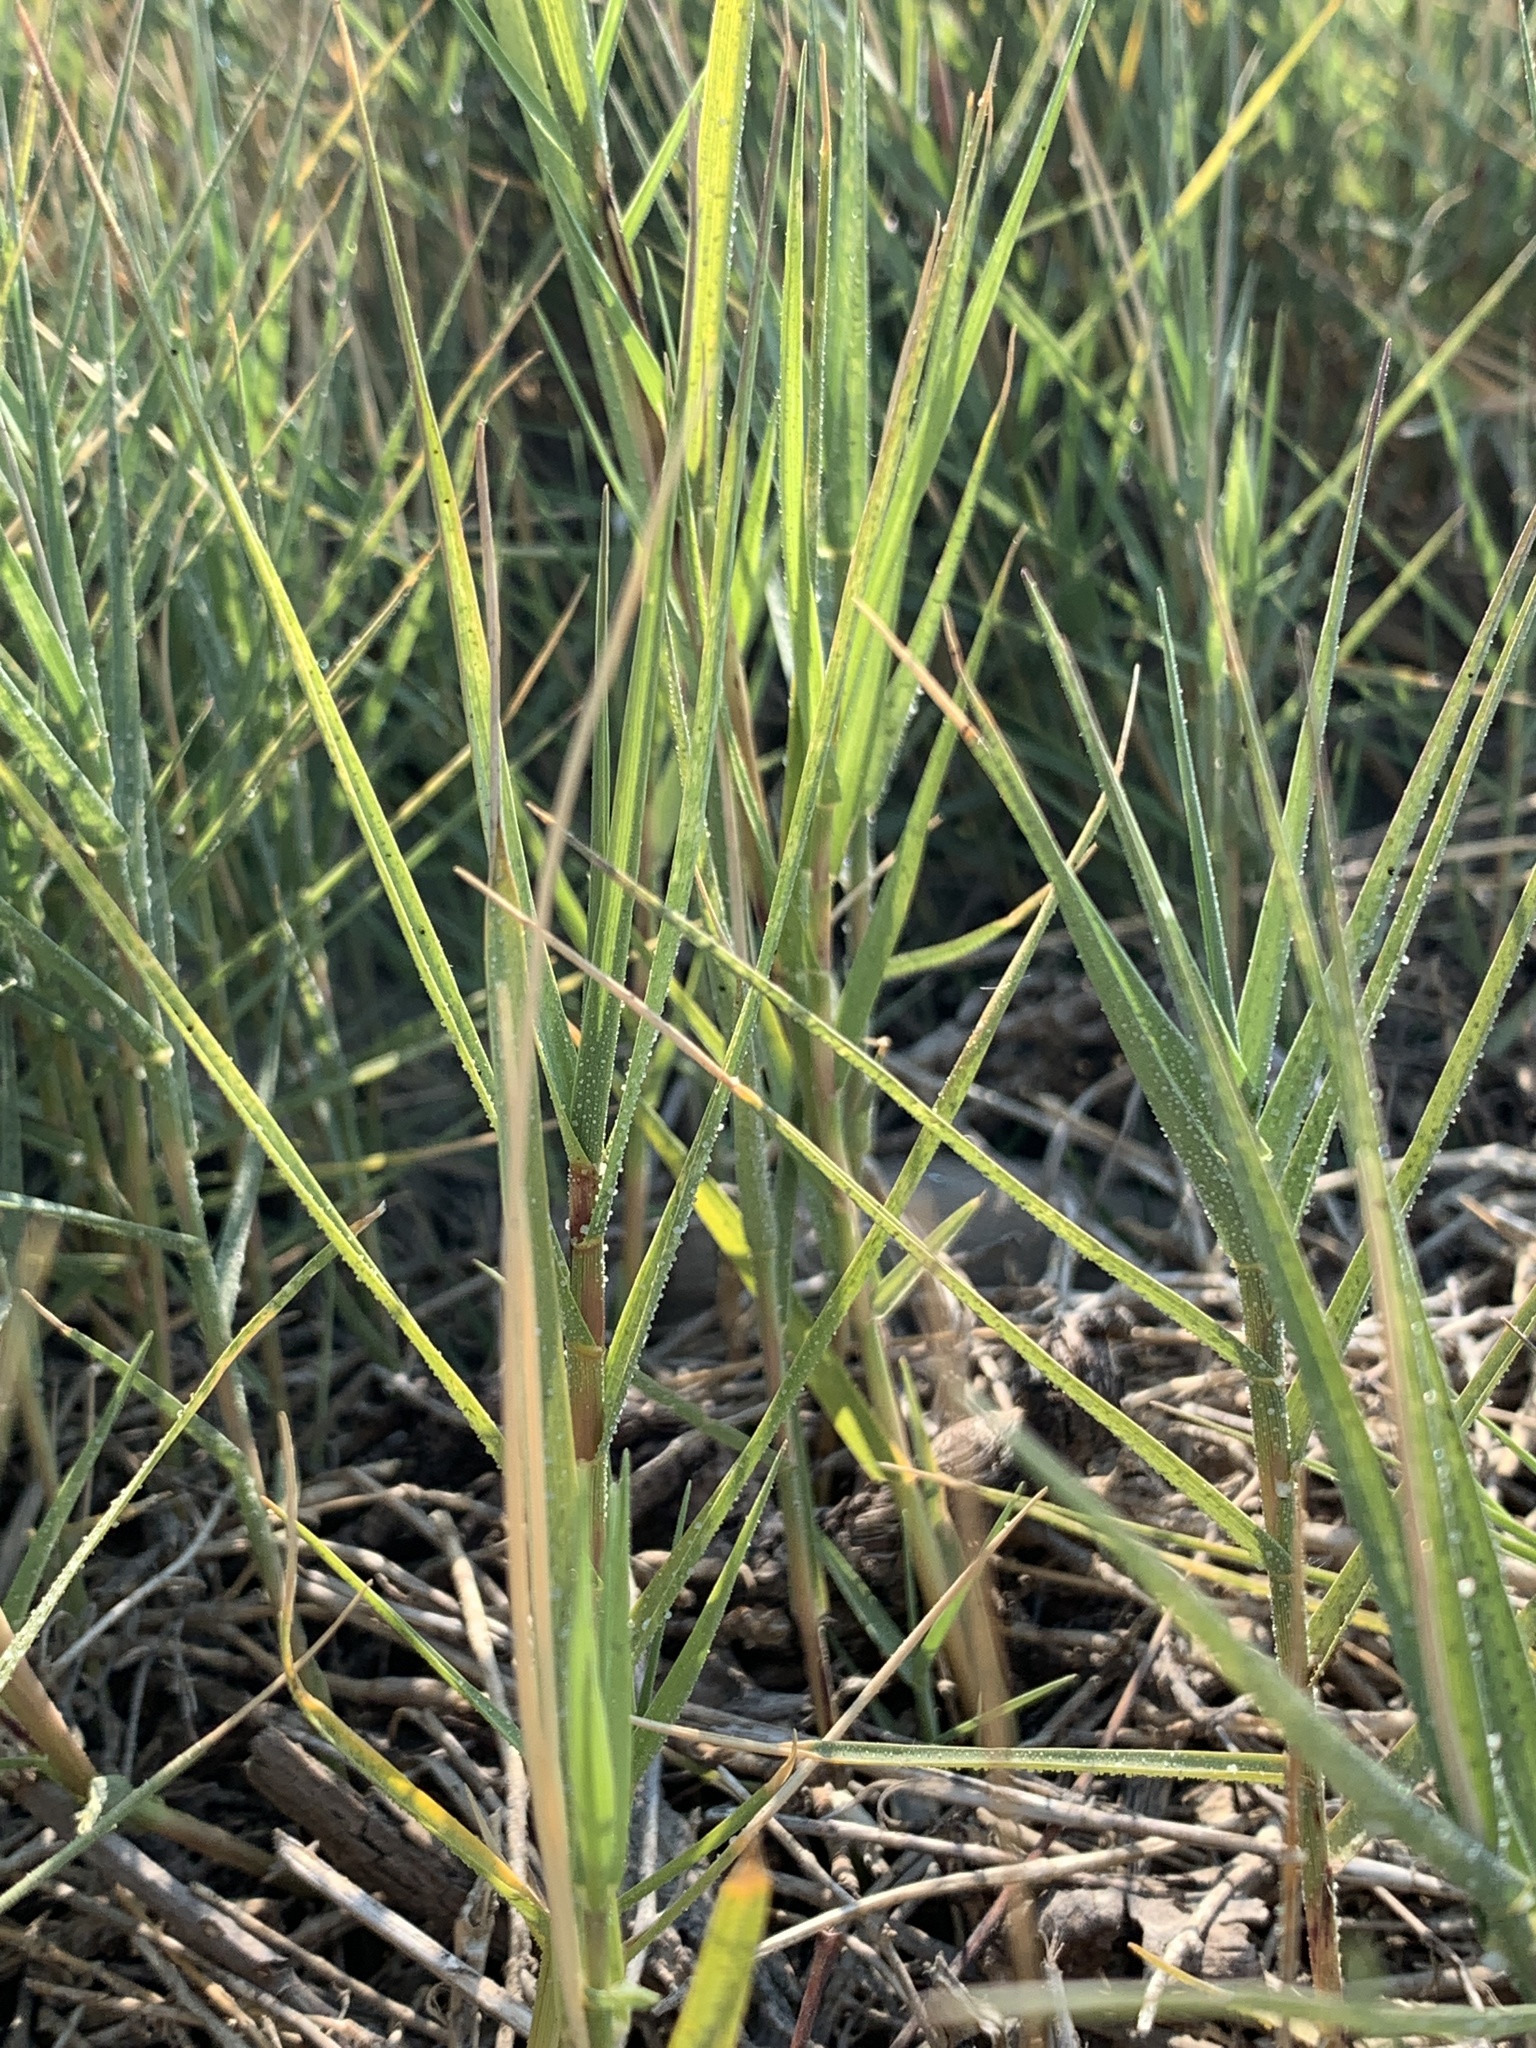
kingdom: Plantae
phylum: Tracheophyta
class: Liliopsida
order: Poales
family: Poaceae
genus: Distichlis
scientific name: Distichlis spicata
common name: Saltgrass
